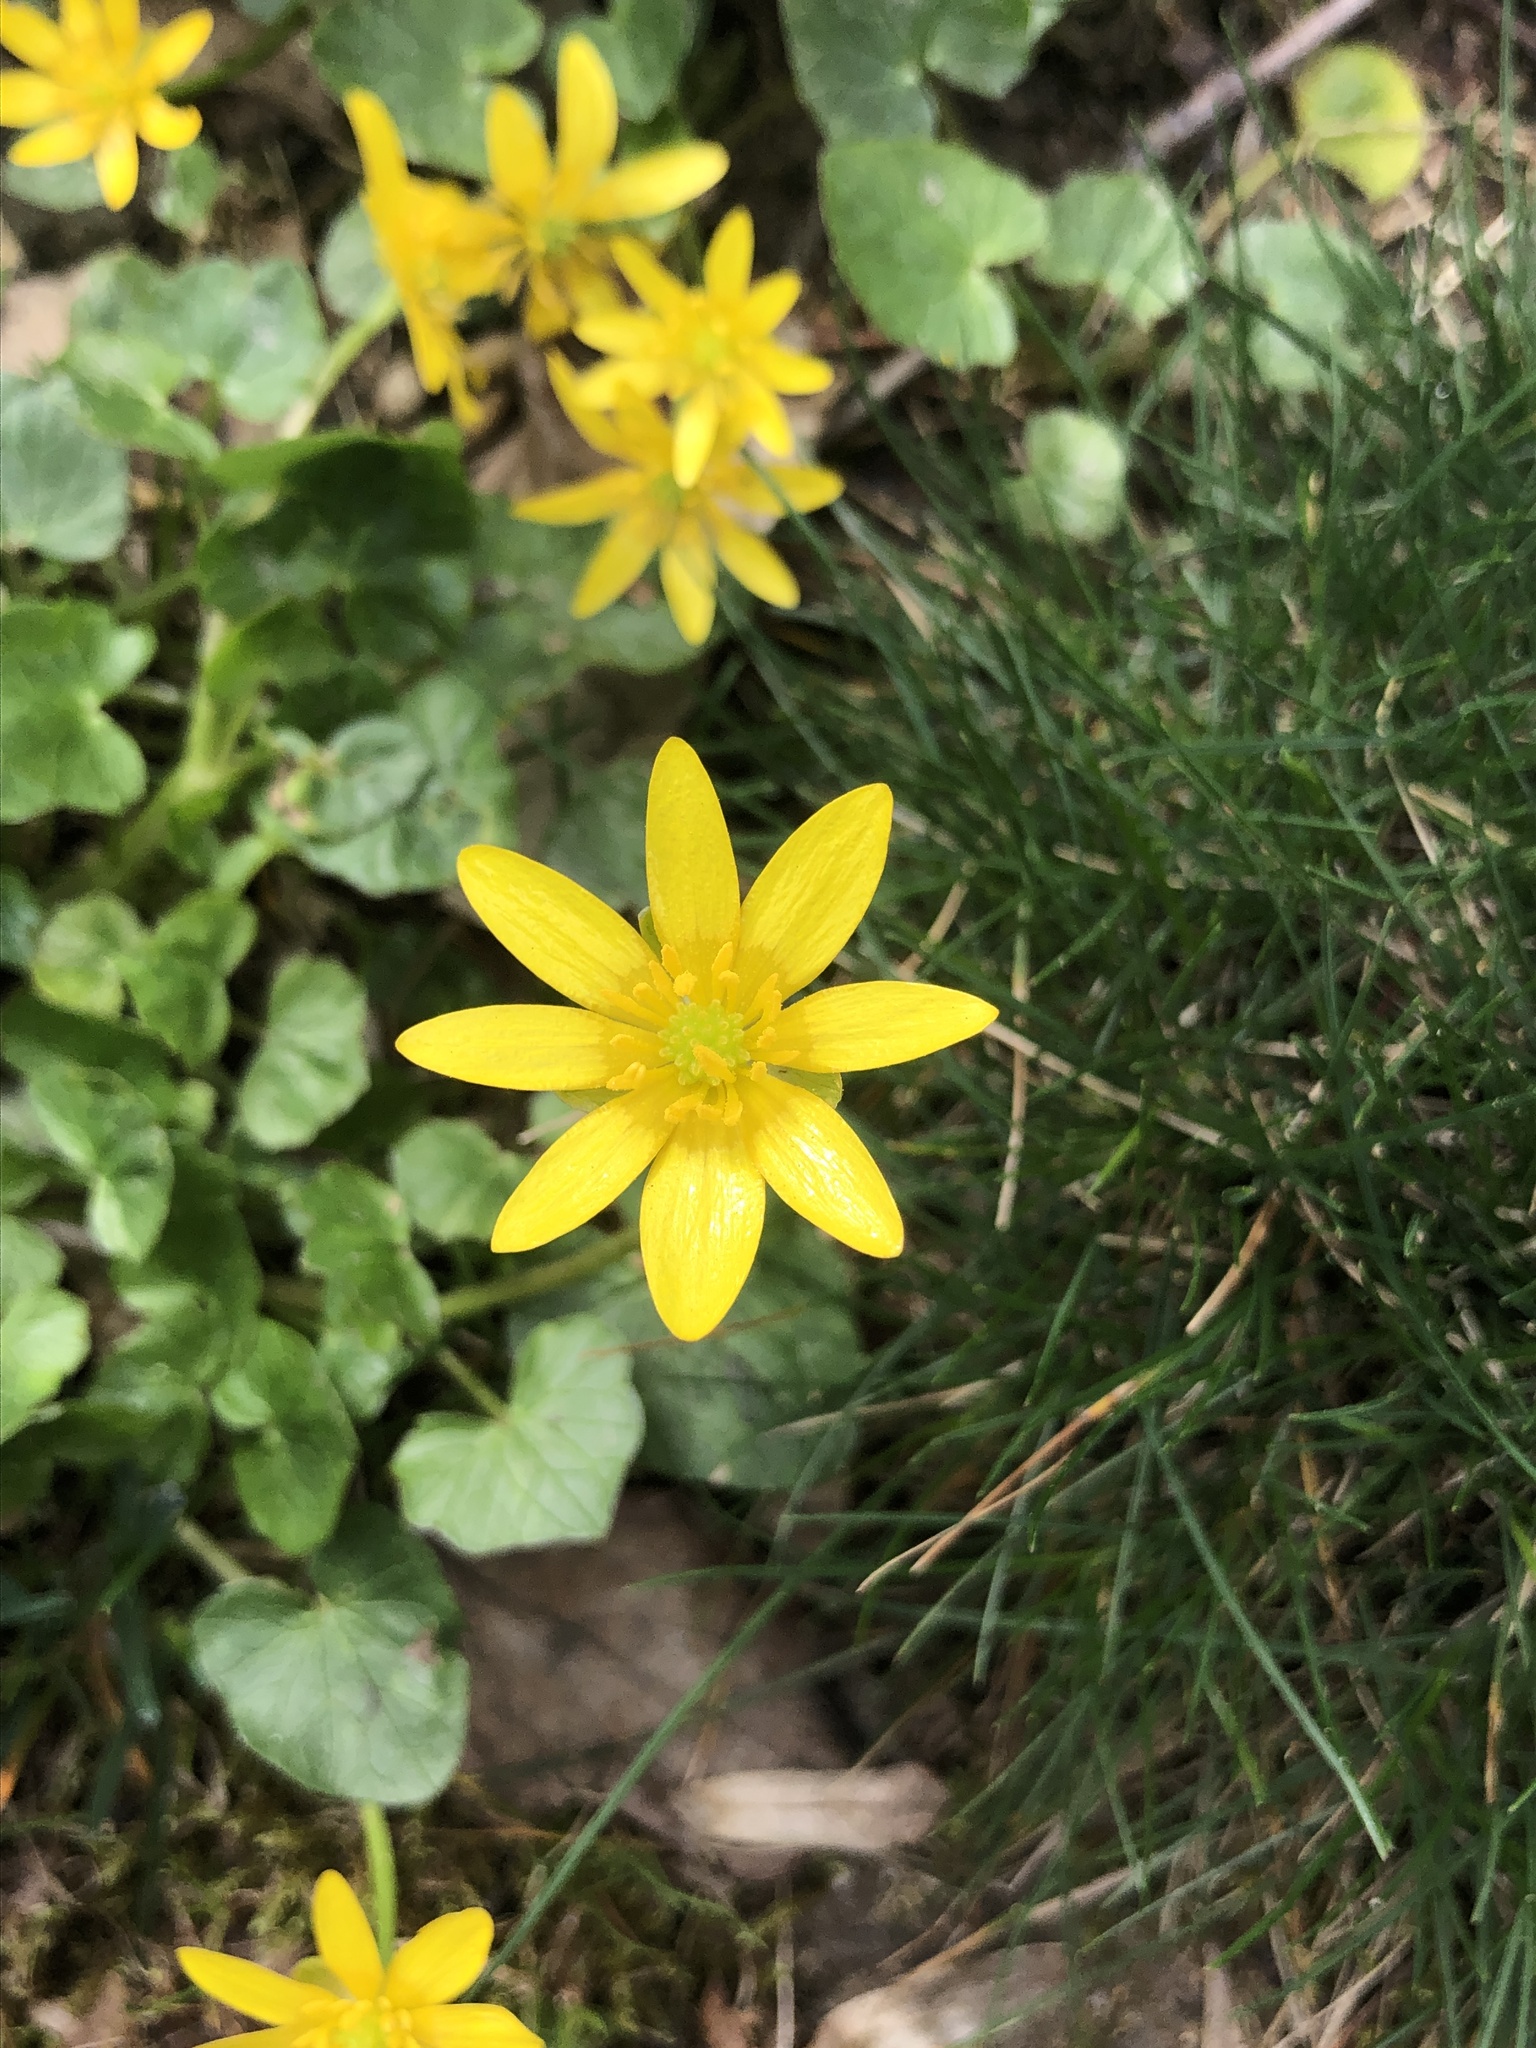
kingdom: Plantae
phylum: Tracheophyta
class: Magnoliopsida
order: Ranunculales
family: Ranunculaceae
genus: Ficaria
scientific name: Ficaria verna
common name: Lesser celandine
